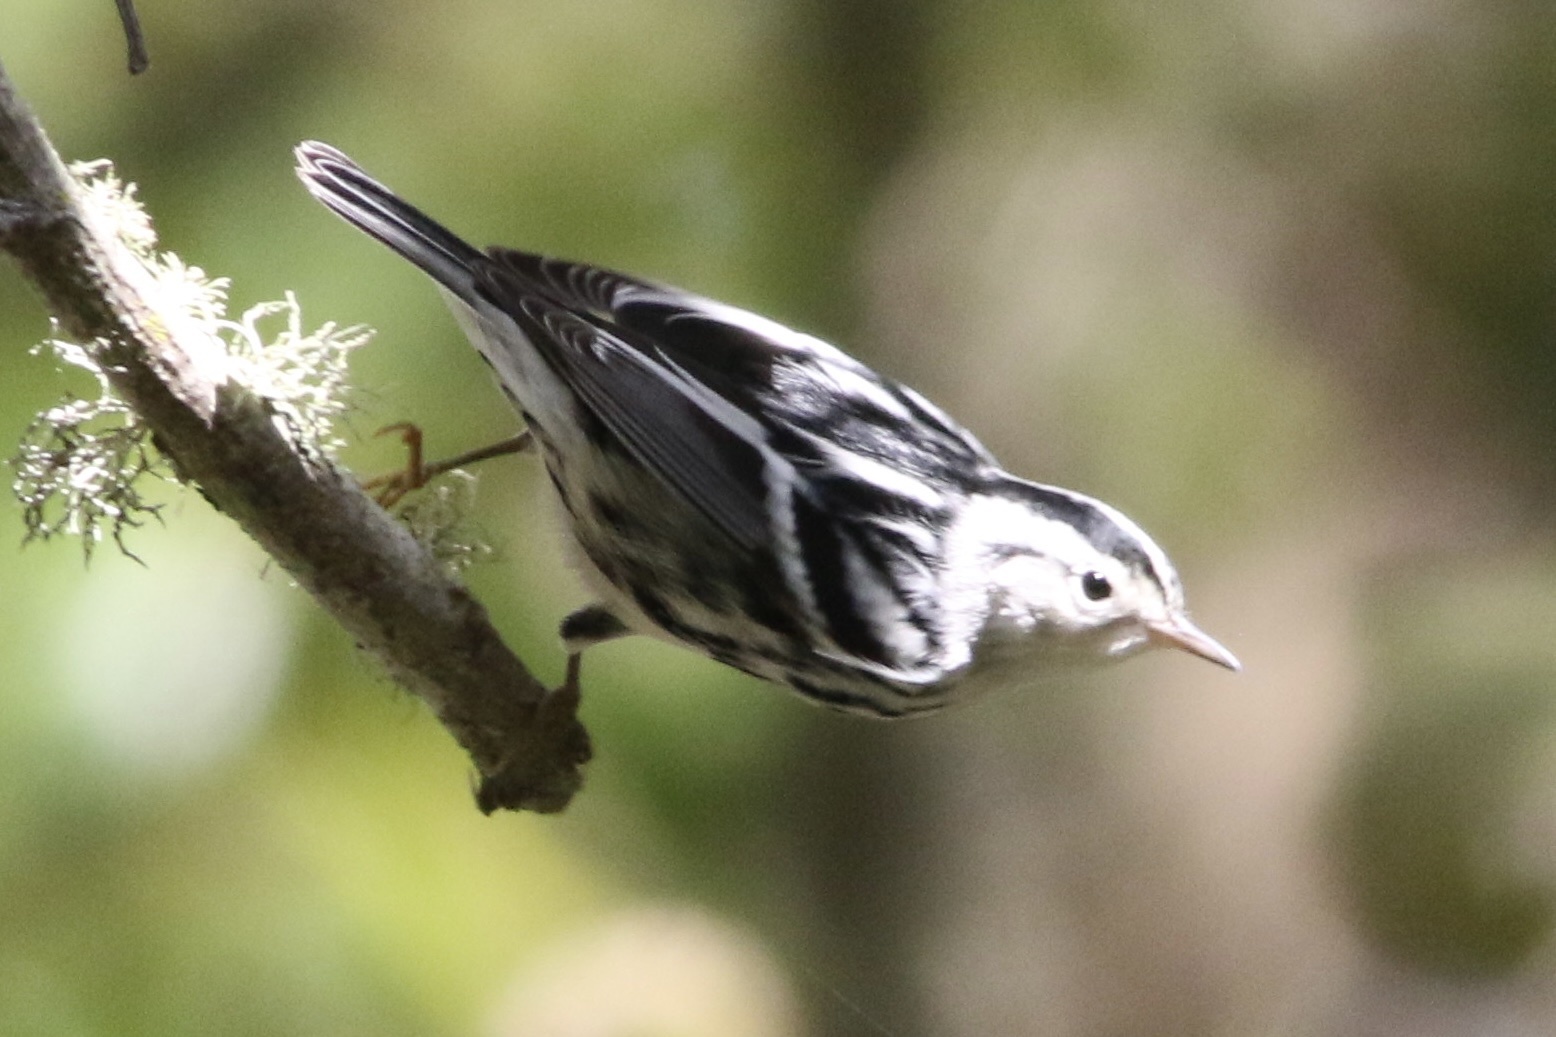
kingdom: Animalia
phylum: Chordata
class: Aves
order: Passeriformes
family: Parulidae
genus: Mniotilta
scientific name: Mniotilta varia
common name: Black-and-white warbler
